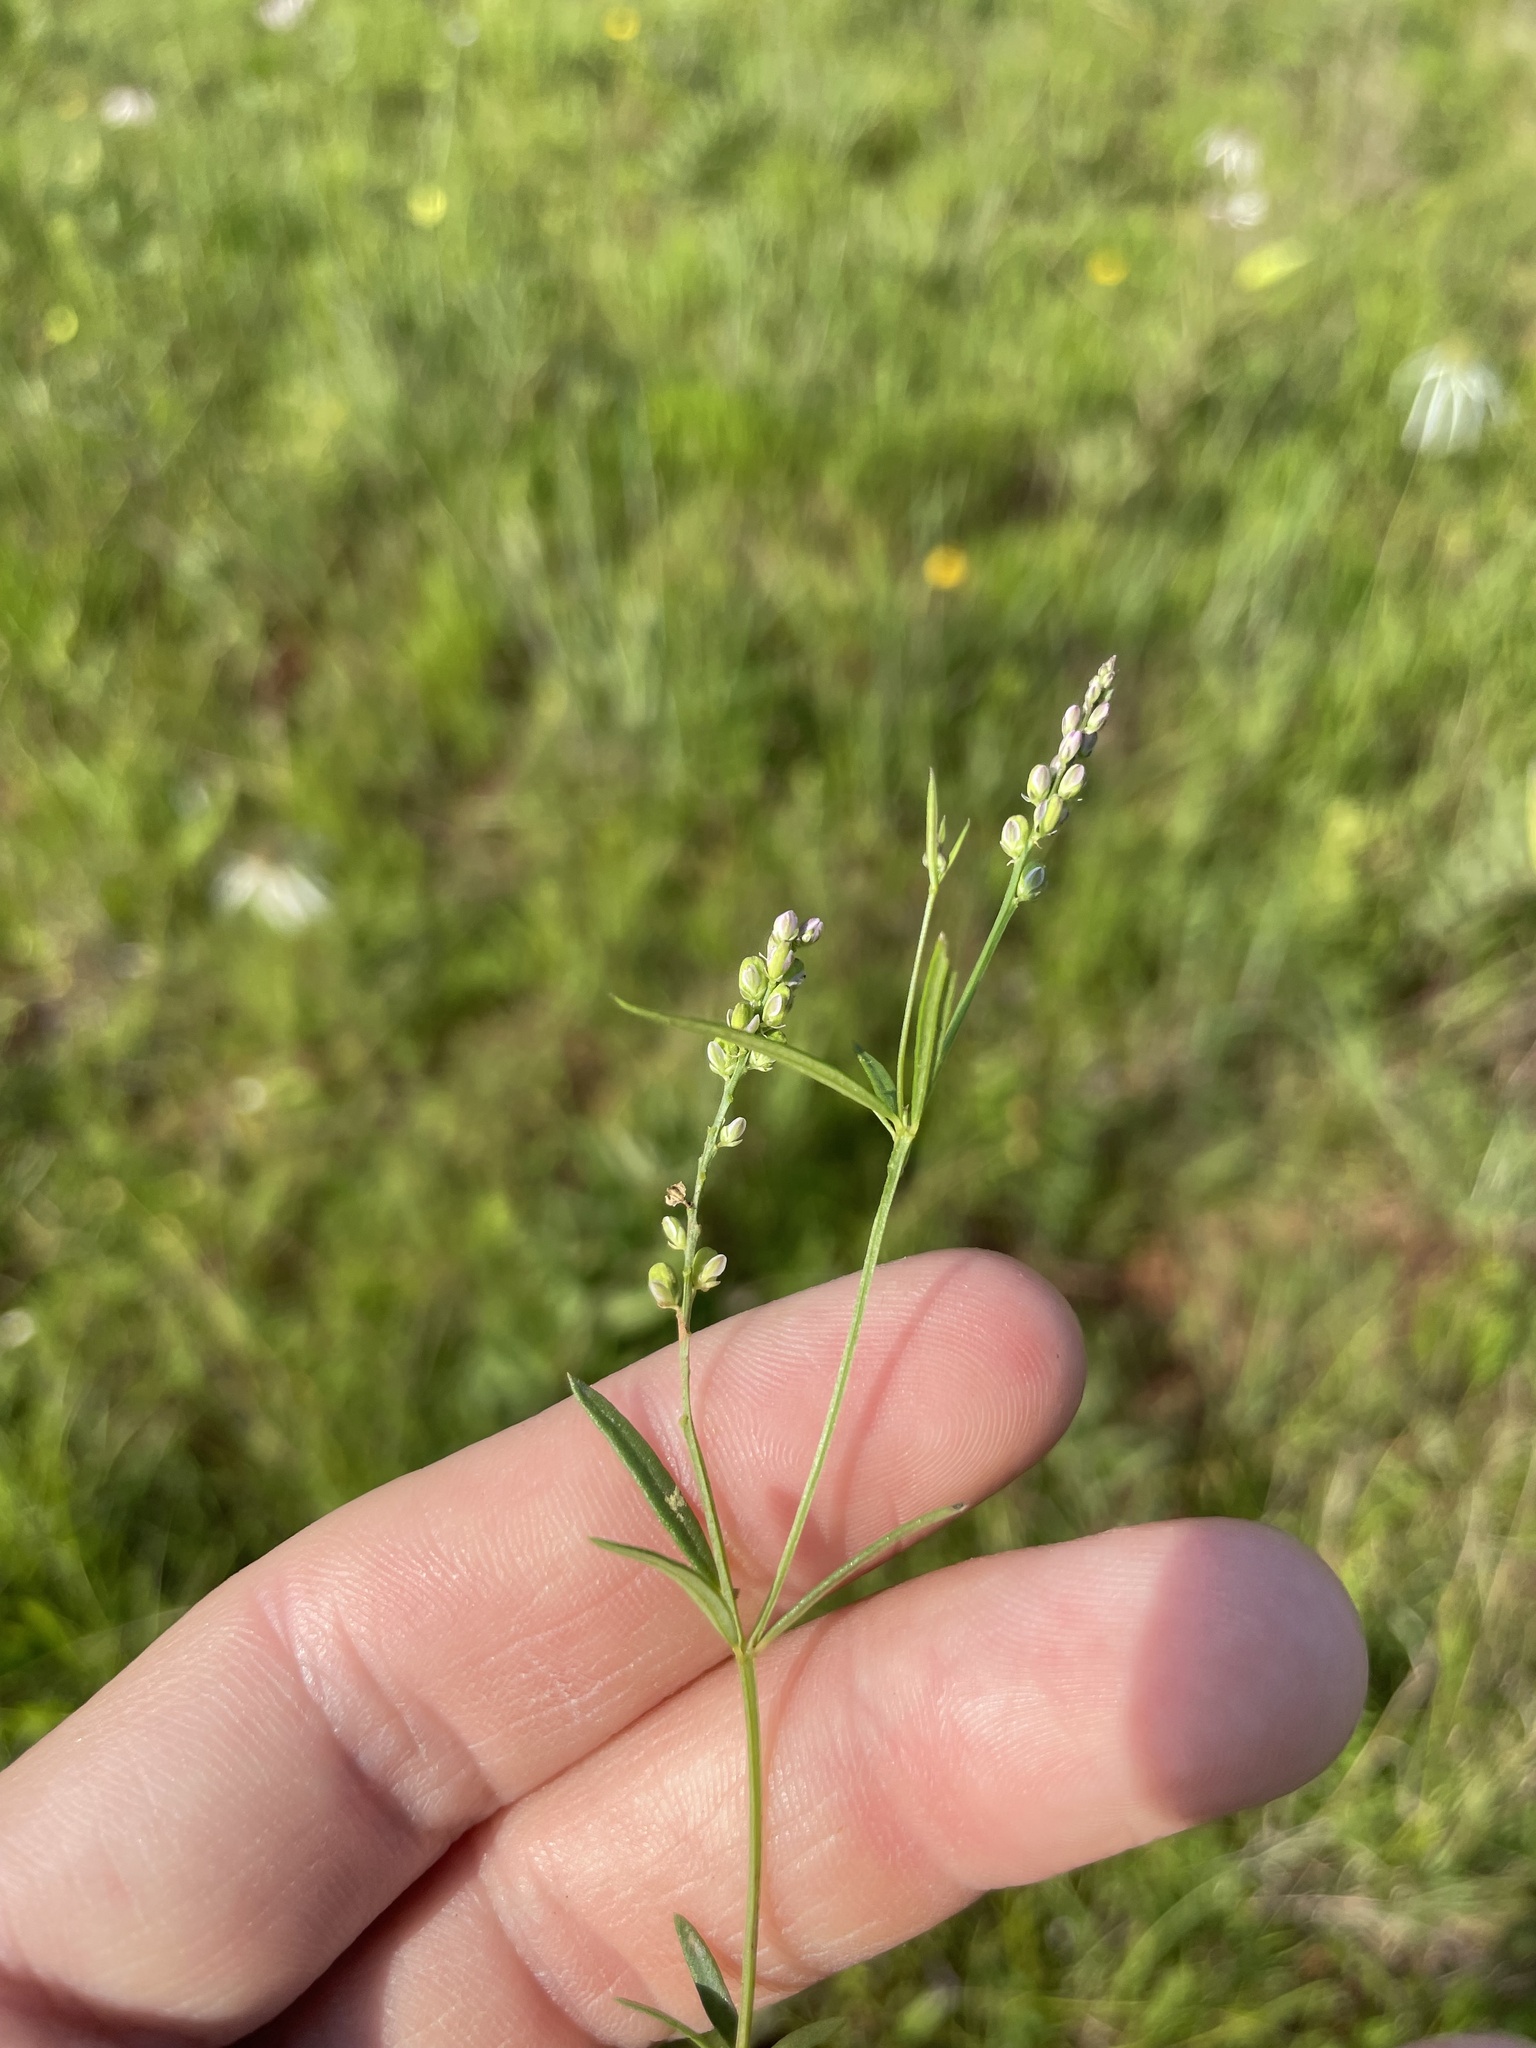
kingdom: Plantae
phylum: Tracheophyta
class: Magnoliopsida
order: Fabales
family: Polygalaceae
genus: Polygala
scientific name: Polygala verticillata
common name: Whorl milkwort
